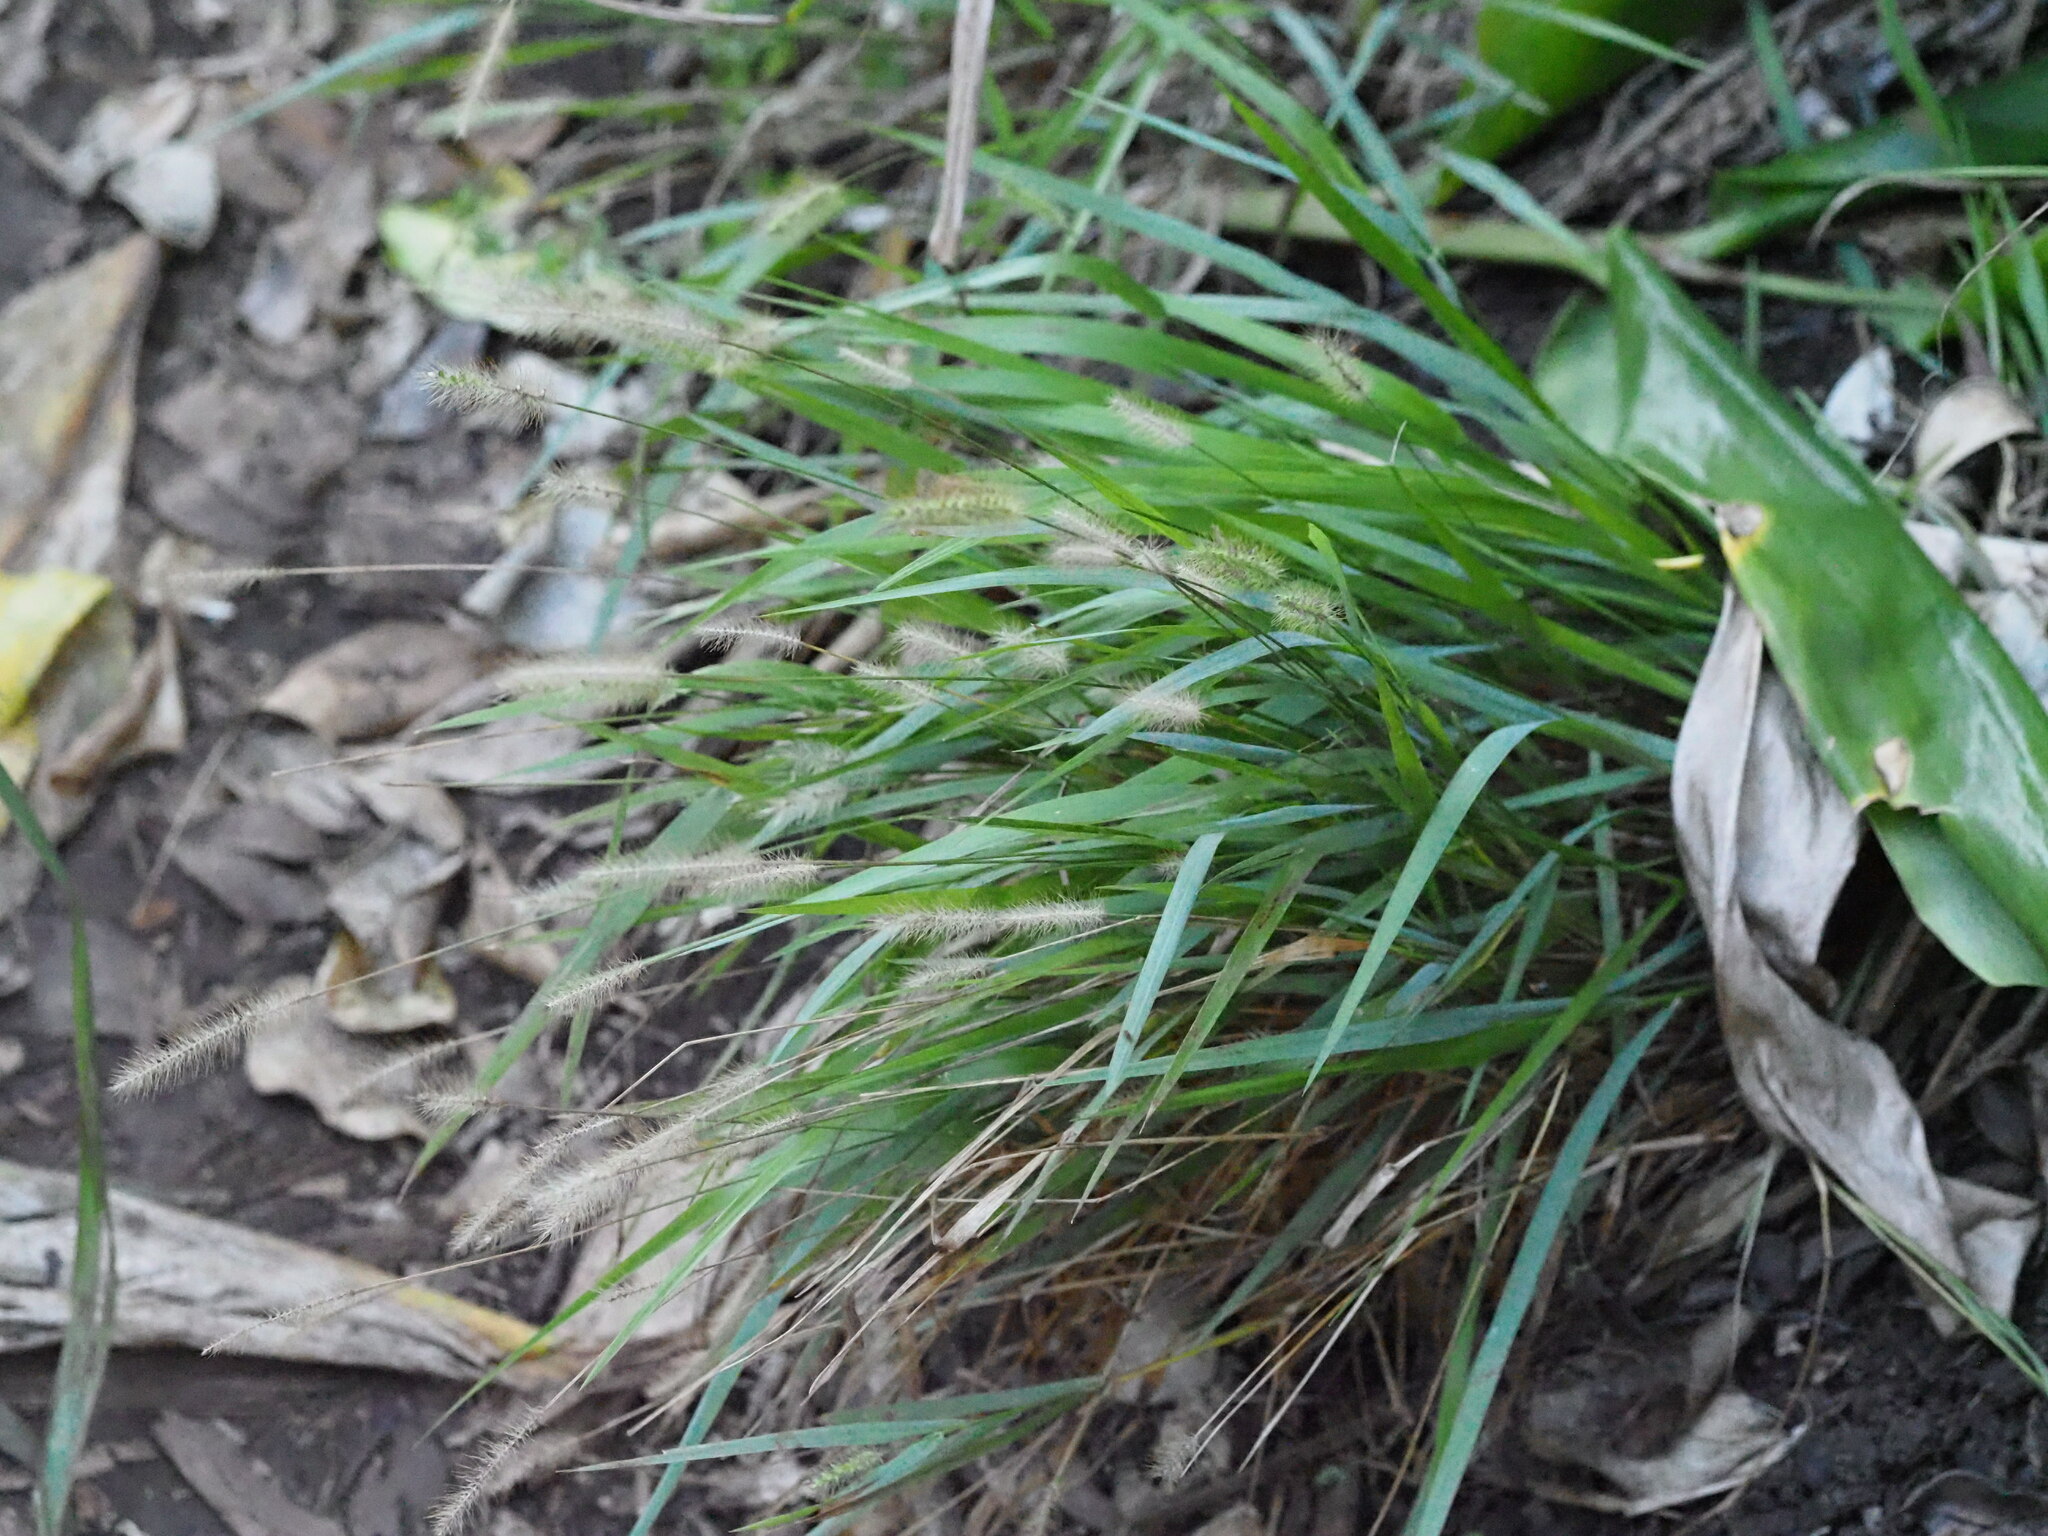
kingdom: Plantae
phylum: Tracheophyta
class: Liliopsida
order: Poales
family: Poaceae
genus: Setaria
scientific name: Setaria parviflora
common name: Knotroot bristle-grass
